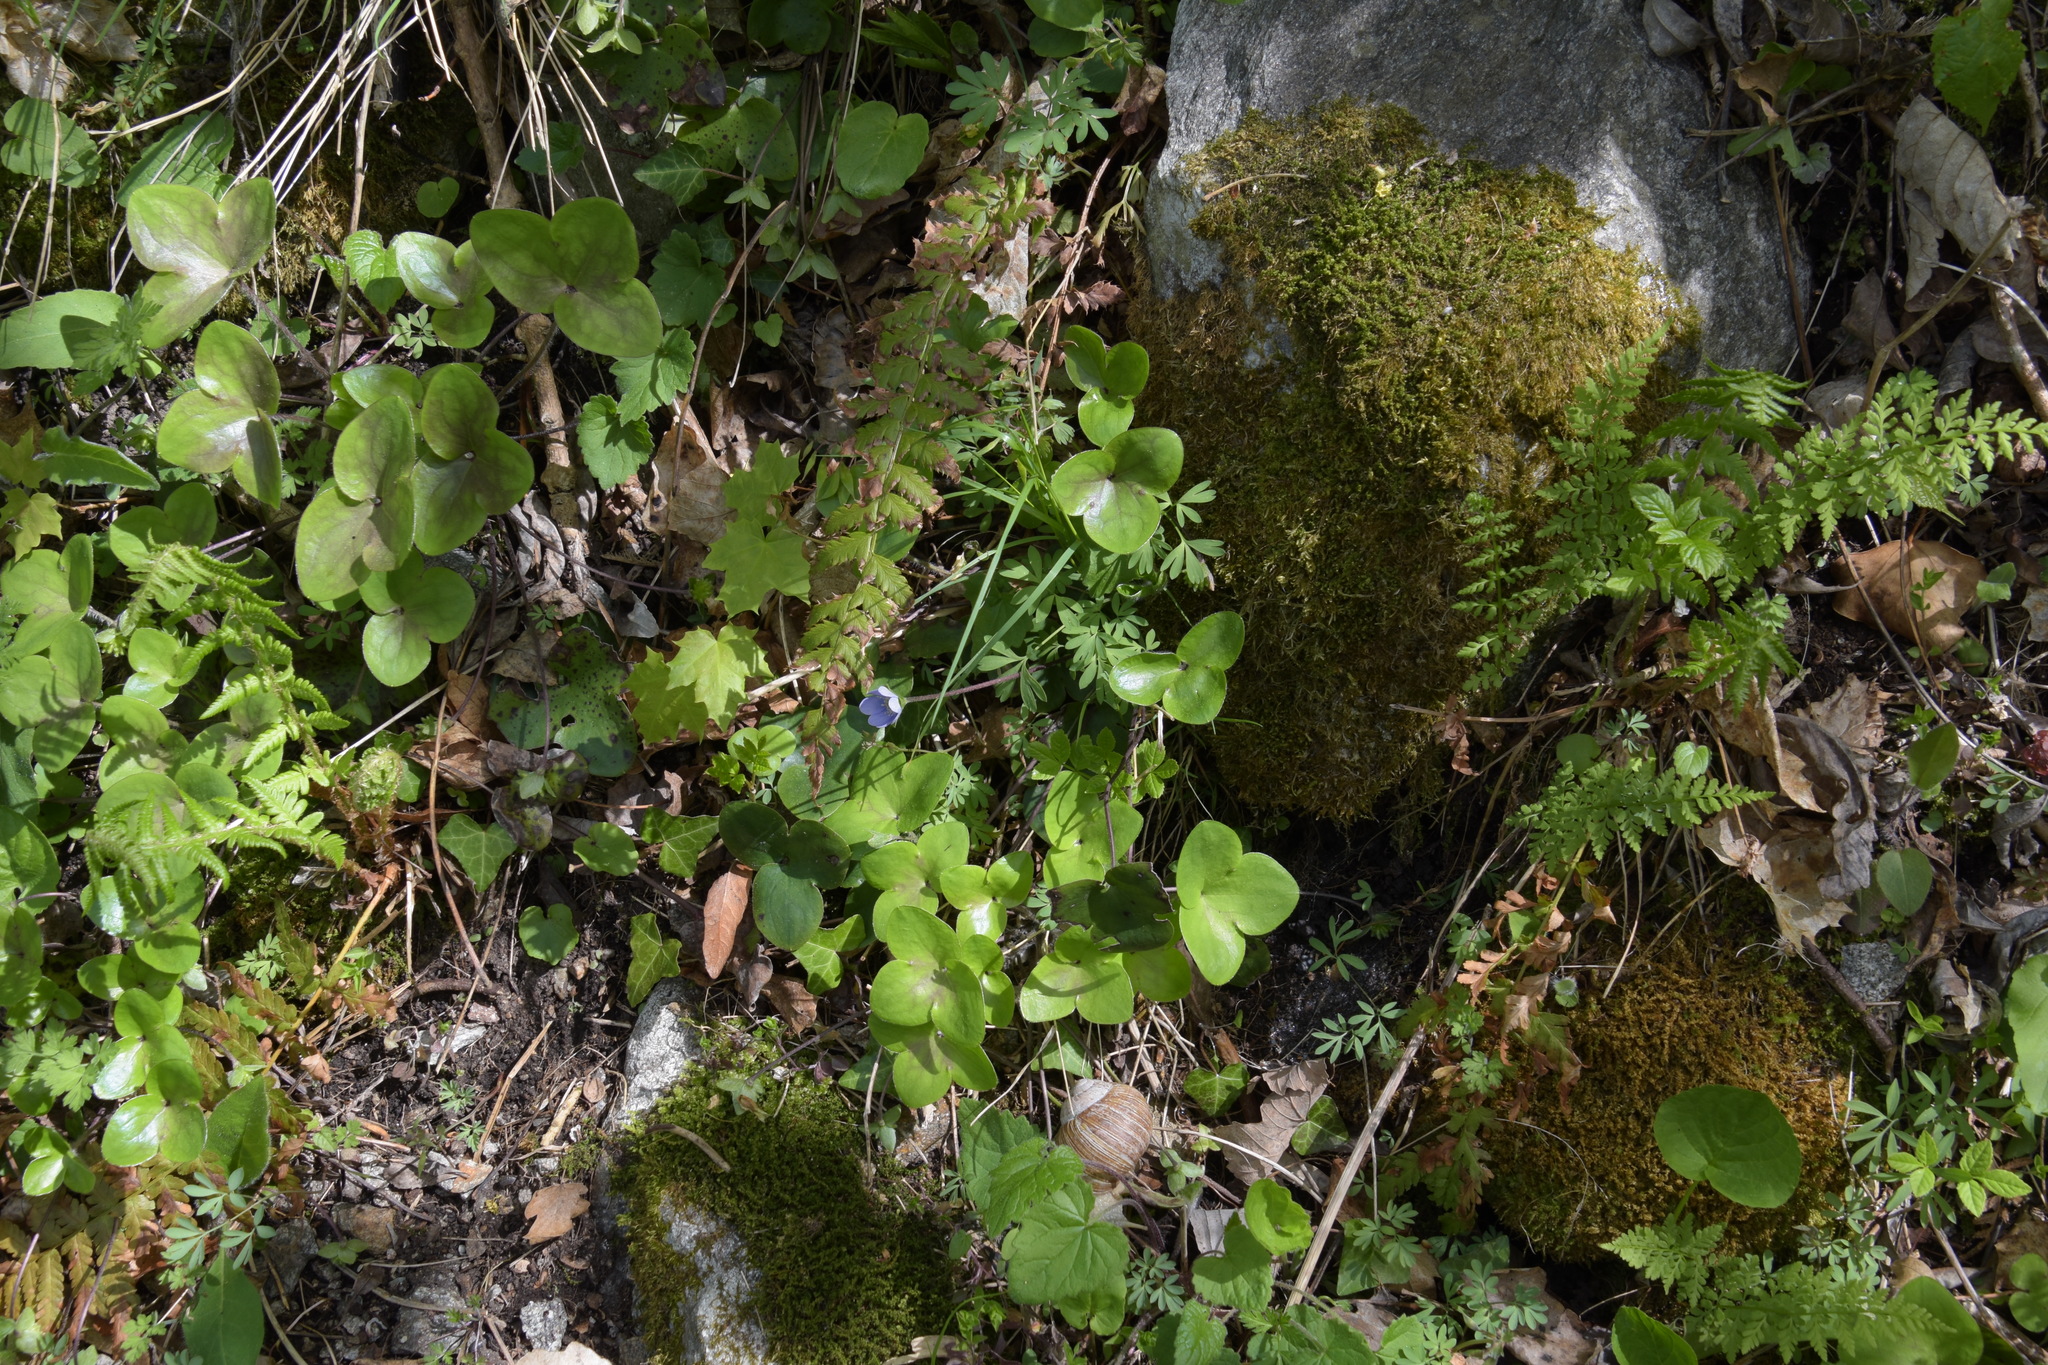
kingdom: Plantae
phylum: Tracheophyta
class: Magnoliopsida
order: Ranunculales
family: Ranunculaceae
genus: Hepatica
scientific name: Hepatica nobilis
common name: Liverleaf
